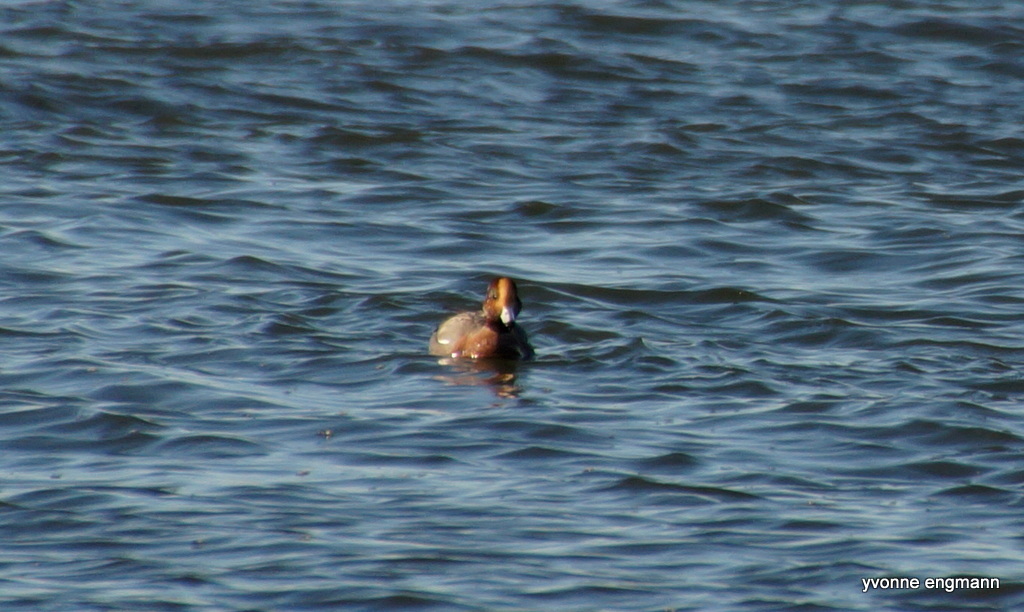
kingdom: Animalia
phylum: Chordata
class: Aves
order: Anseriformes
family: Anatidae
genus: Mareca
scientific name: Mareca penelope
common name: Eurasian wigeon
